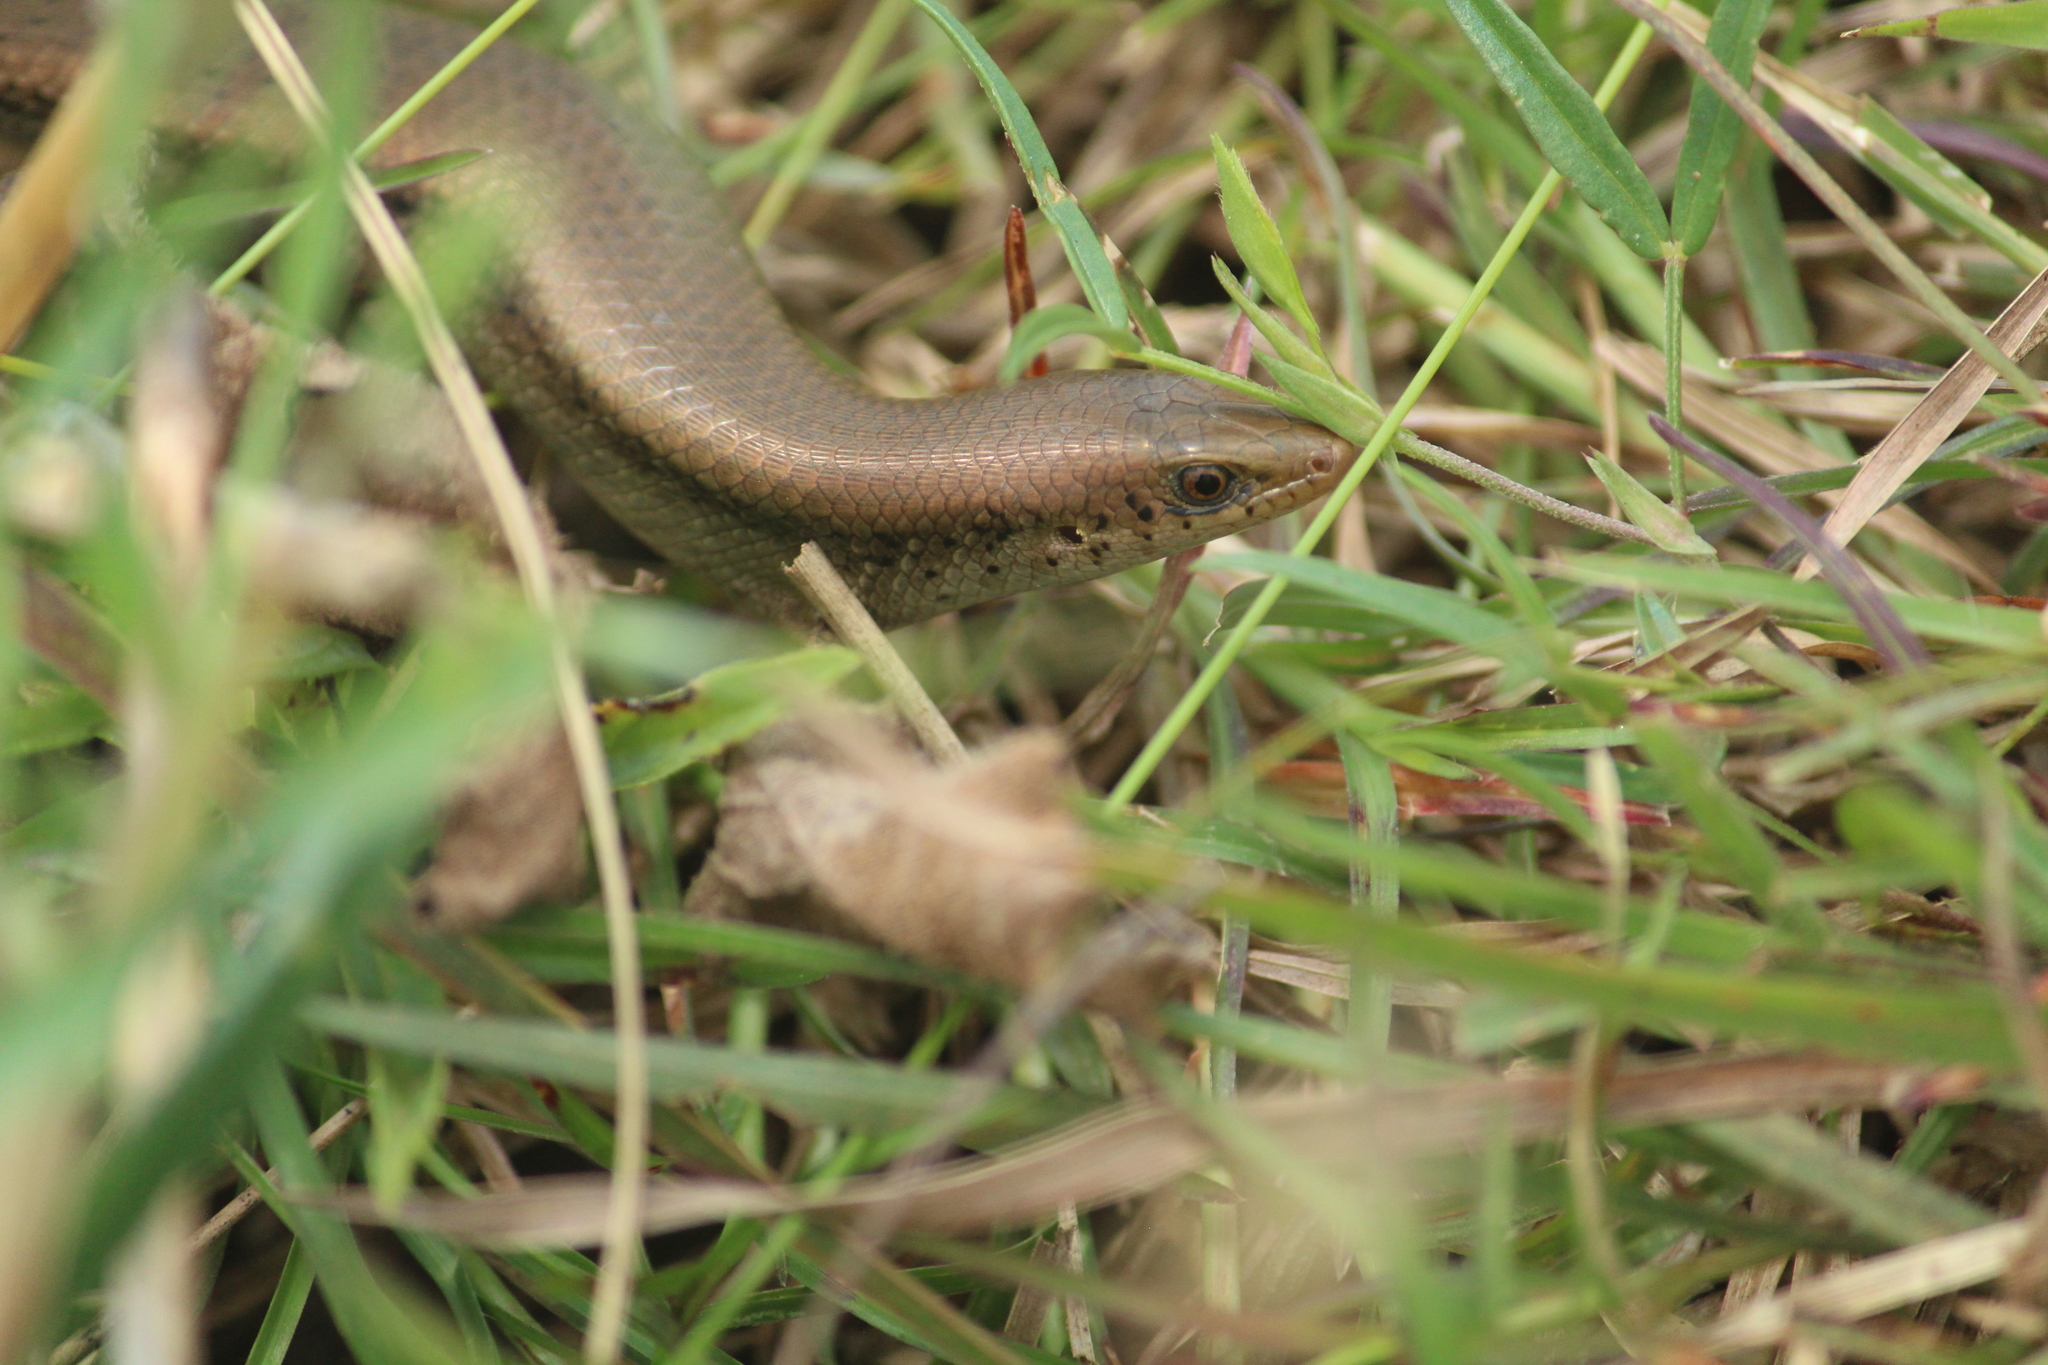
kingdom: Animalia
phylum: Chordata
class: Squamata
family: Scincidae
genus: Eutropis
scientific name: Eutropis macularia
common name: Bronze mabuya
